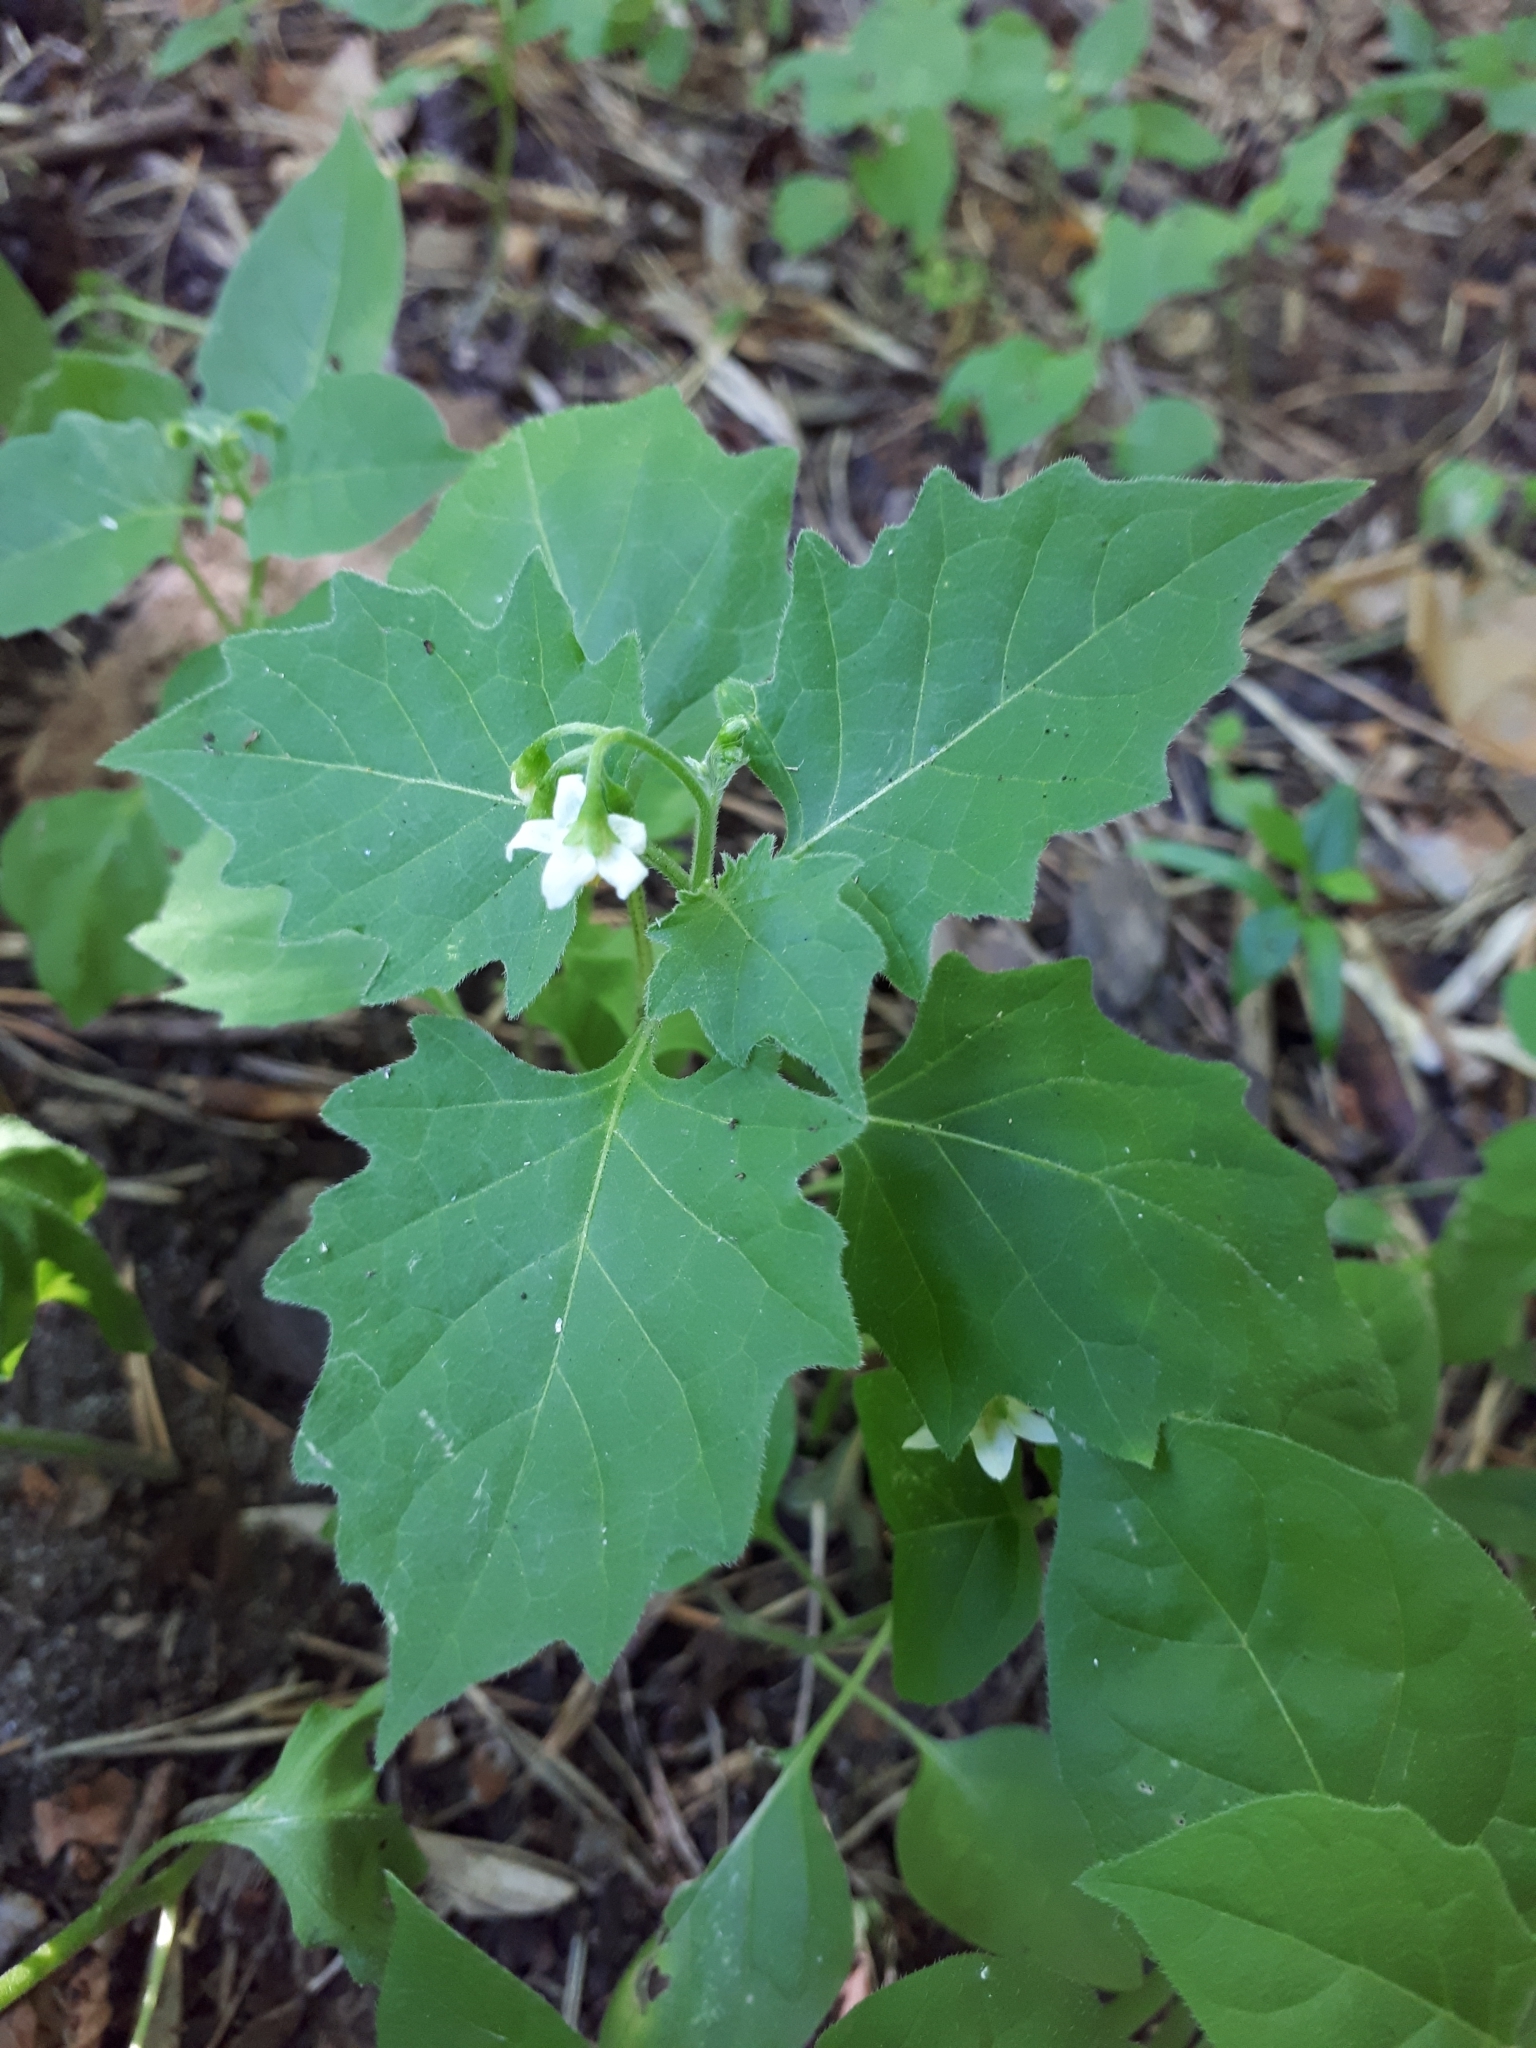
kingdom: Plantae
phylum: Tracheophyta
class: Magnoliopsida
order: Solanales
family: Solanaceae
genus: Solanum
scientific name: Solanum nigrum
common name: Black nightshade
